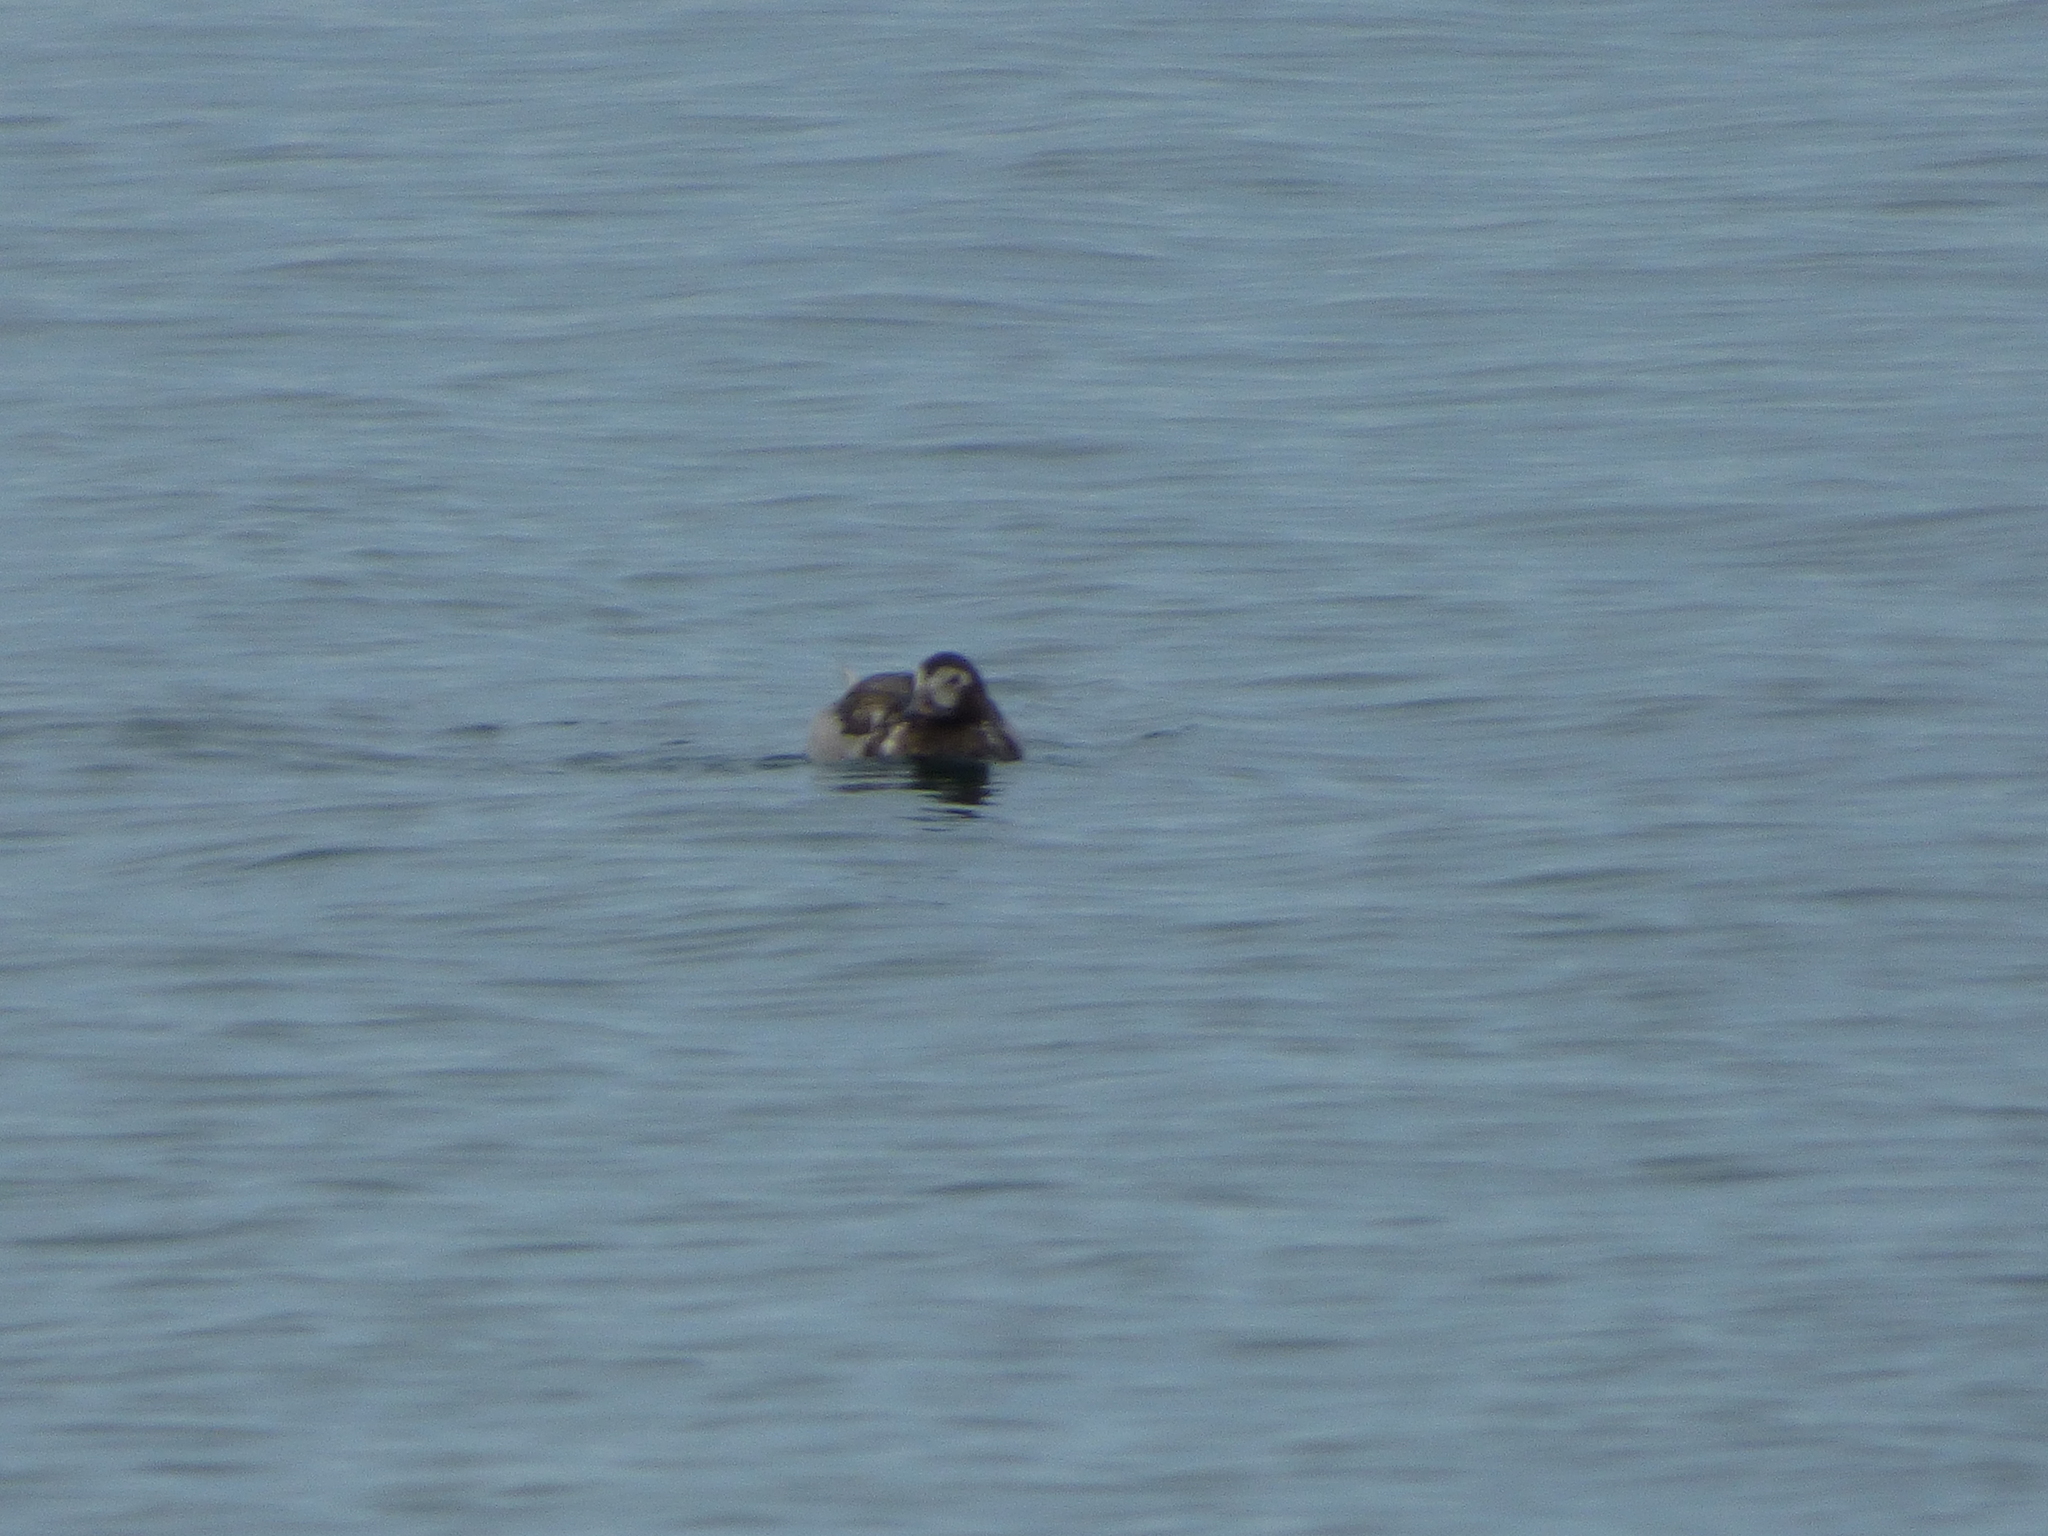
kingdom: Animalia
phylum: Chordata
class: Aves
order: Anseriformes
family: Anatidae
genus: Clangula
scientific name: Clangula hyemalis
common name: Long-tailed duck
